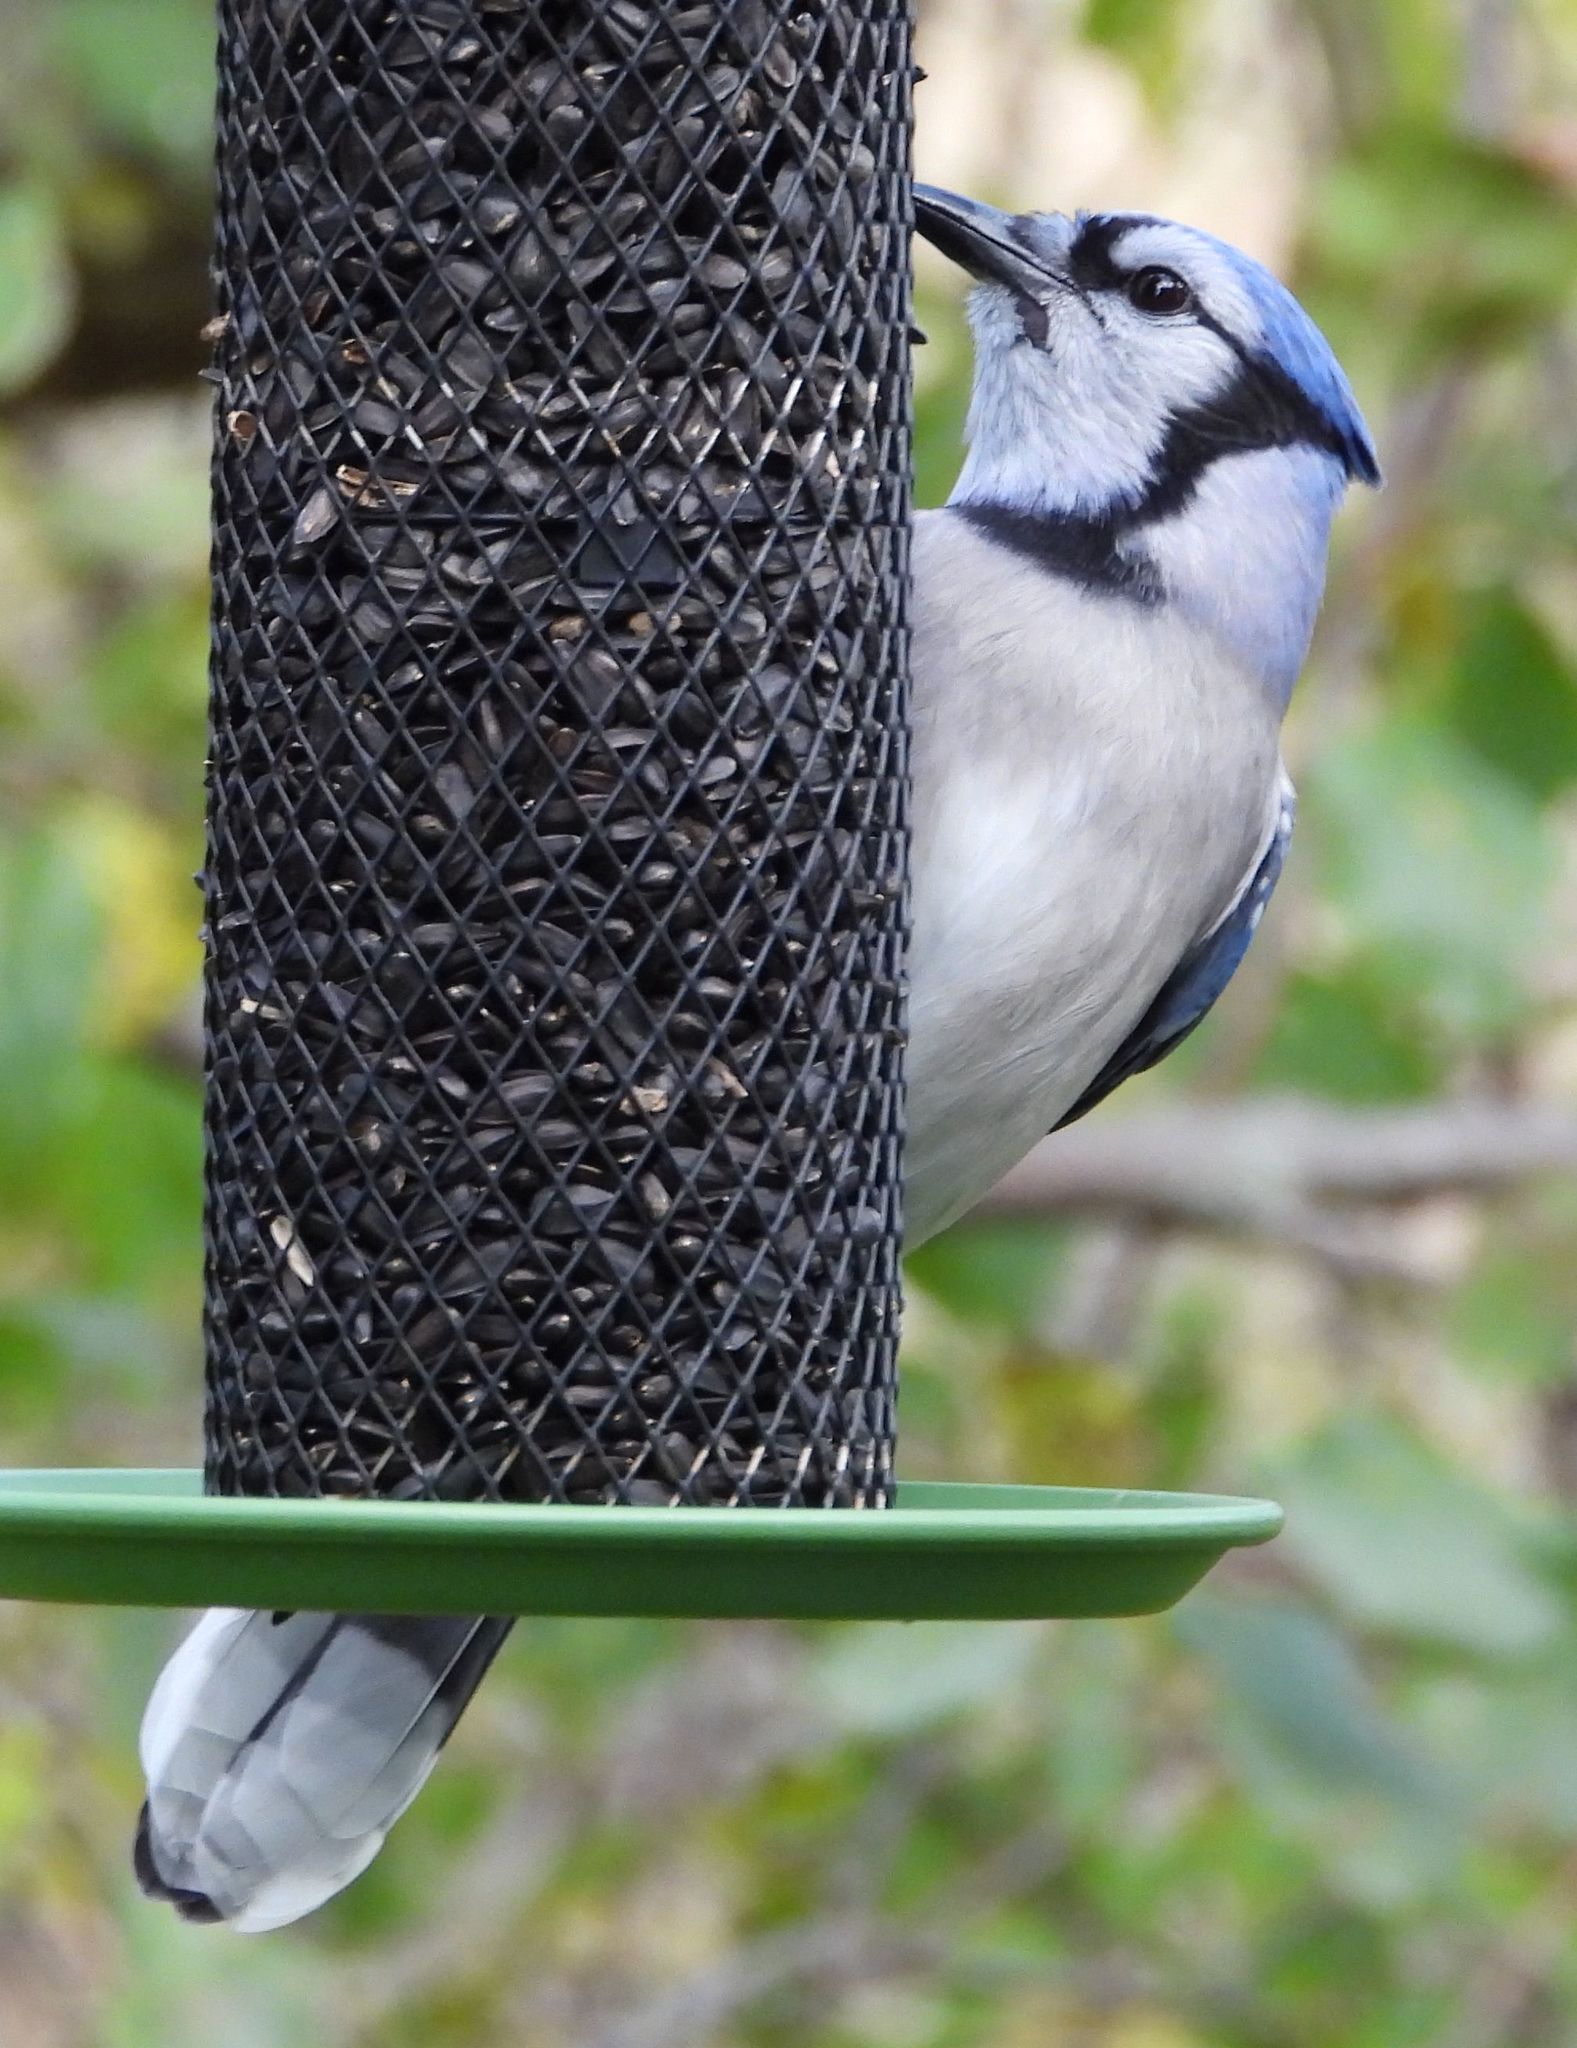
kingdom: Animalia
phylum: Chordata
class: Aves
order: Passeriformes
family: Corvidae
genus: Cyanocitta
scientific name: Cyanocitta cristata
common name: Blue jay
